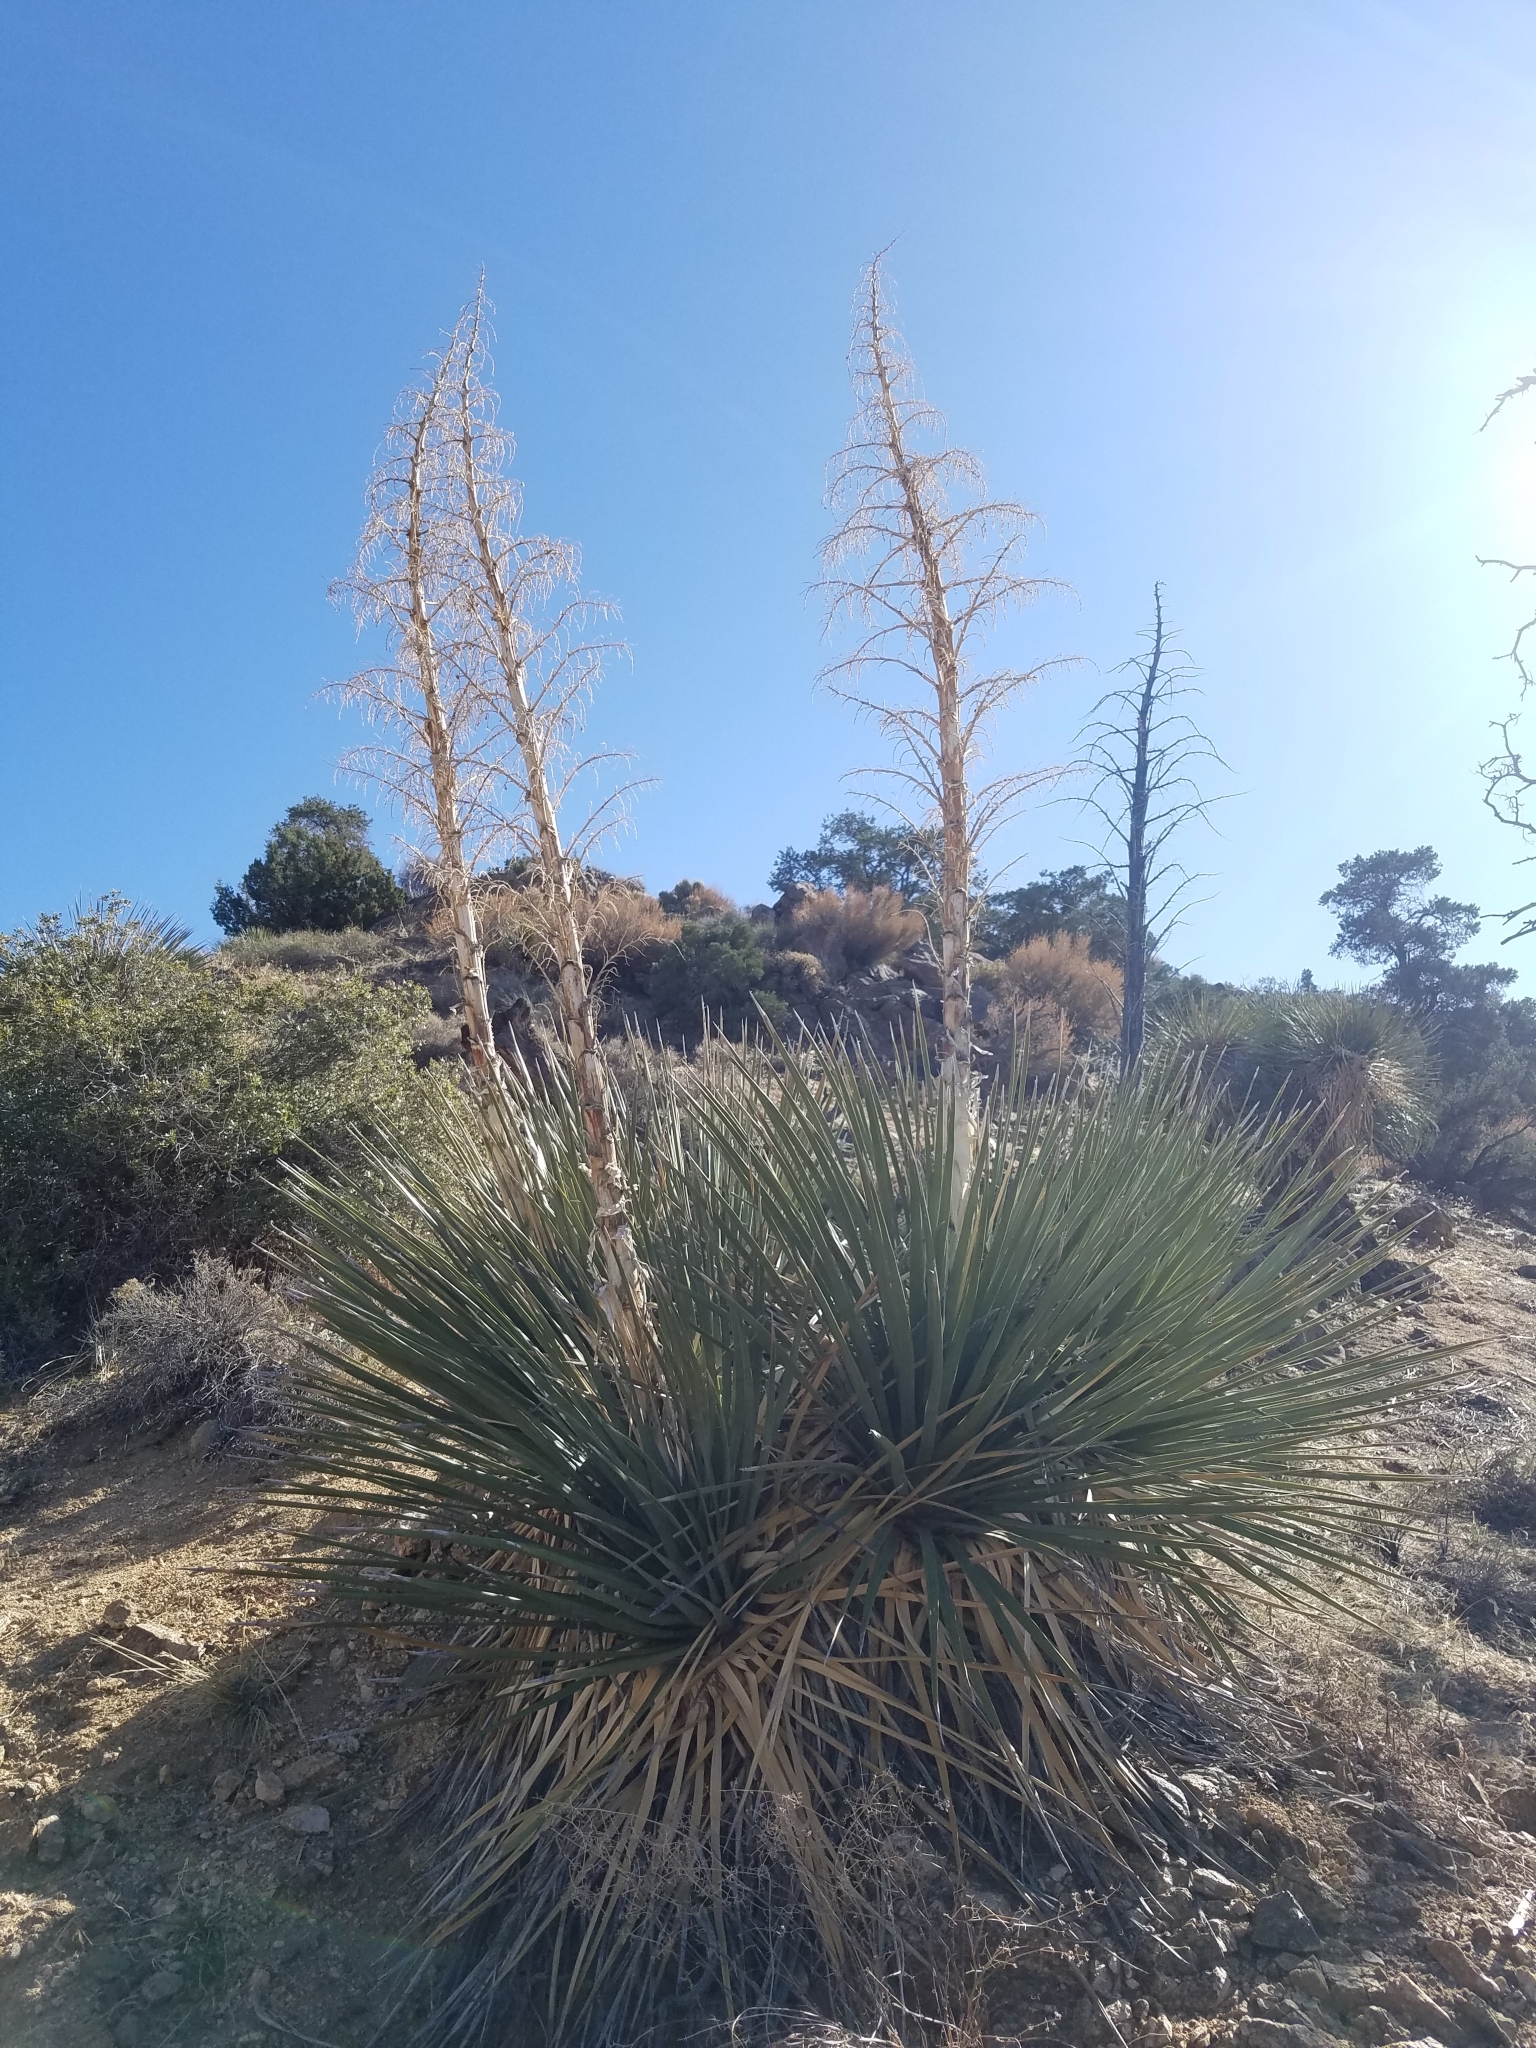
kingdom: Plantae
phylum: Tracheophyta
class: Liliopsida
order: Asparagales
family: Asparagaceae
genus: Nolina
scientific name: Nolina parryi
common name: Parry nolina
